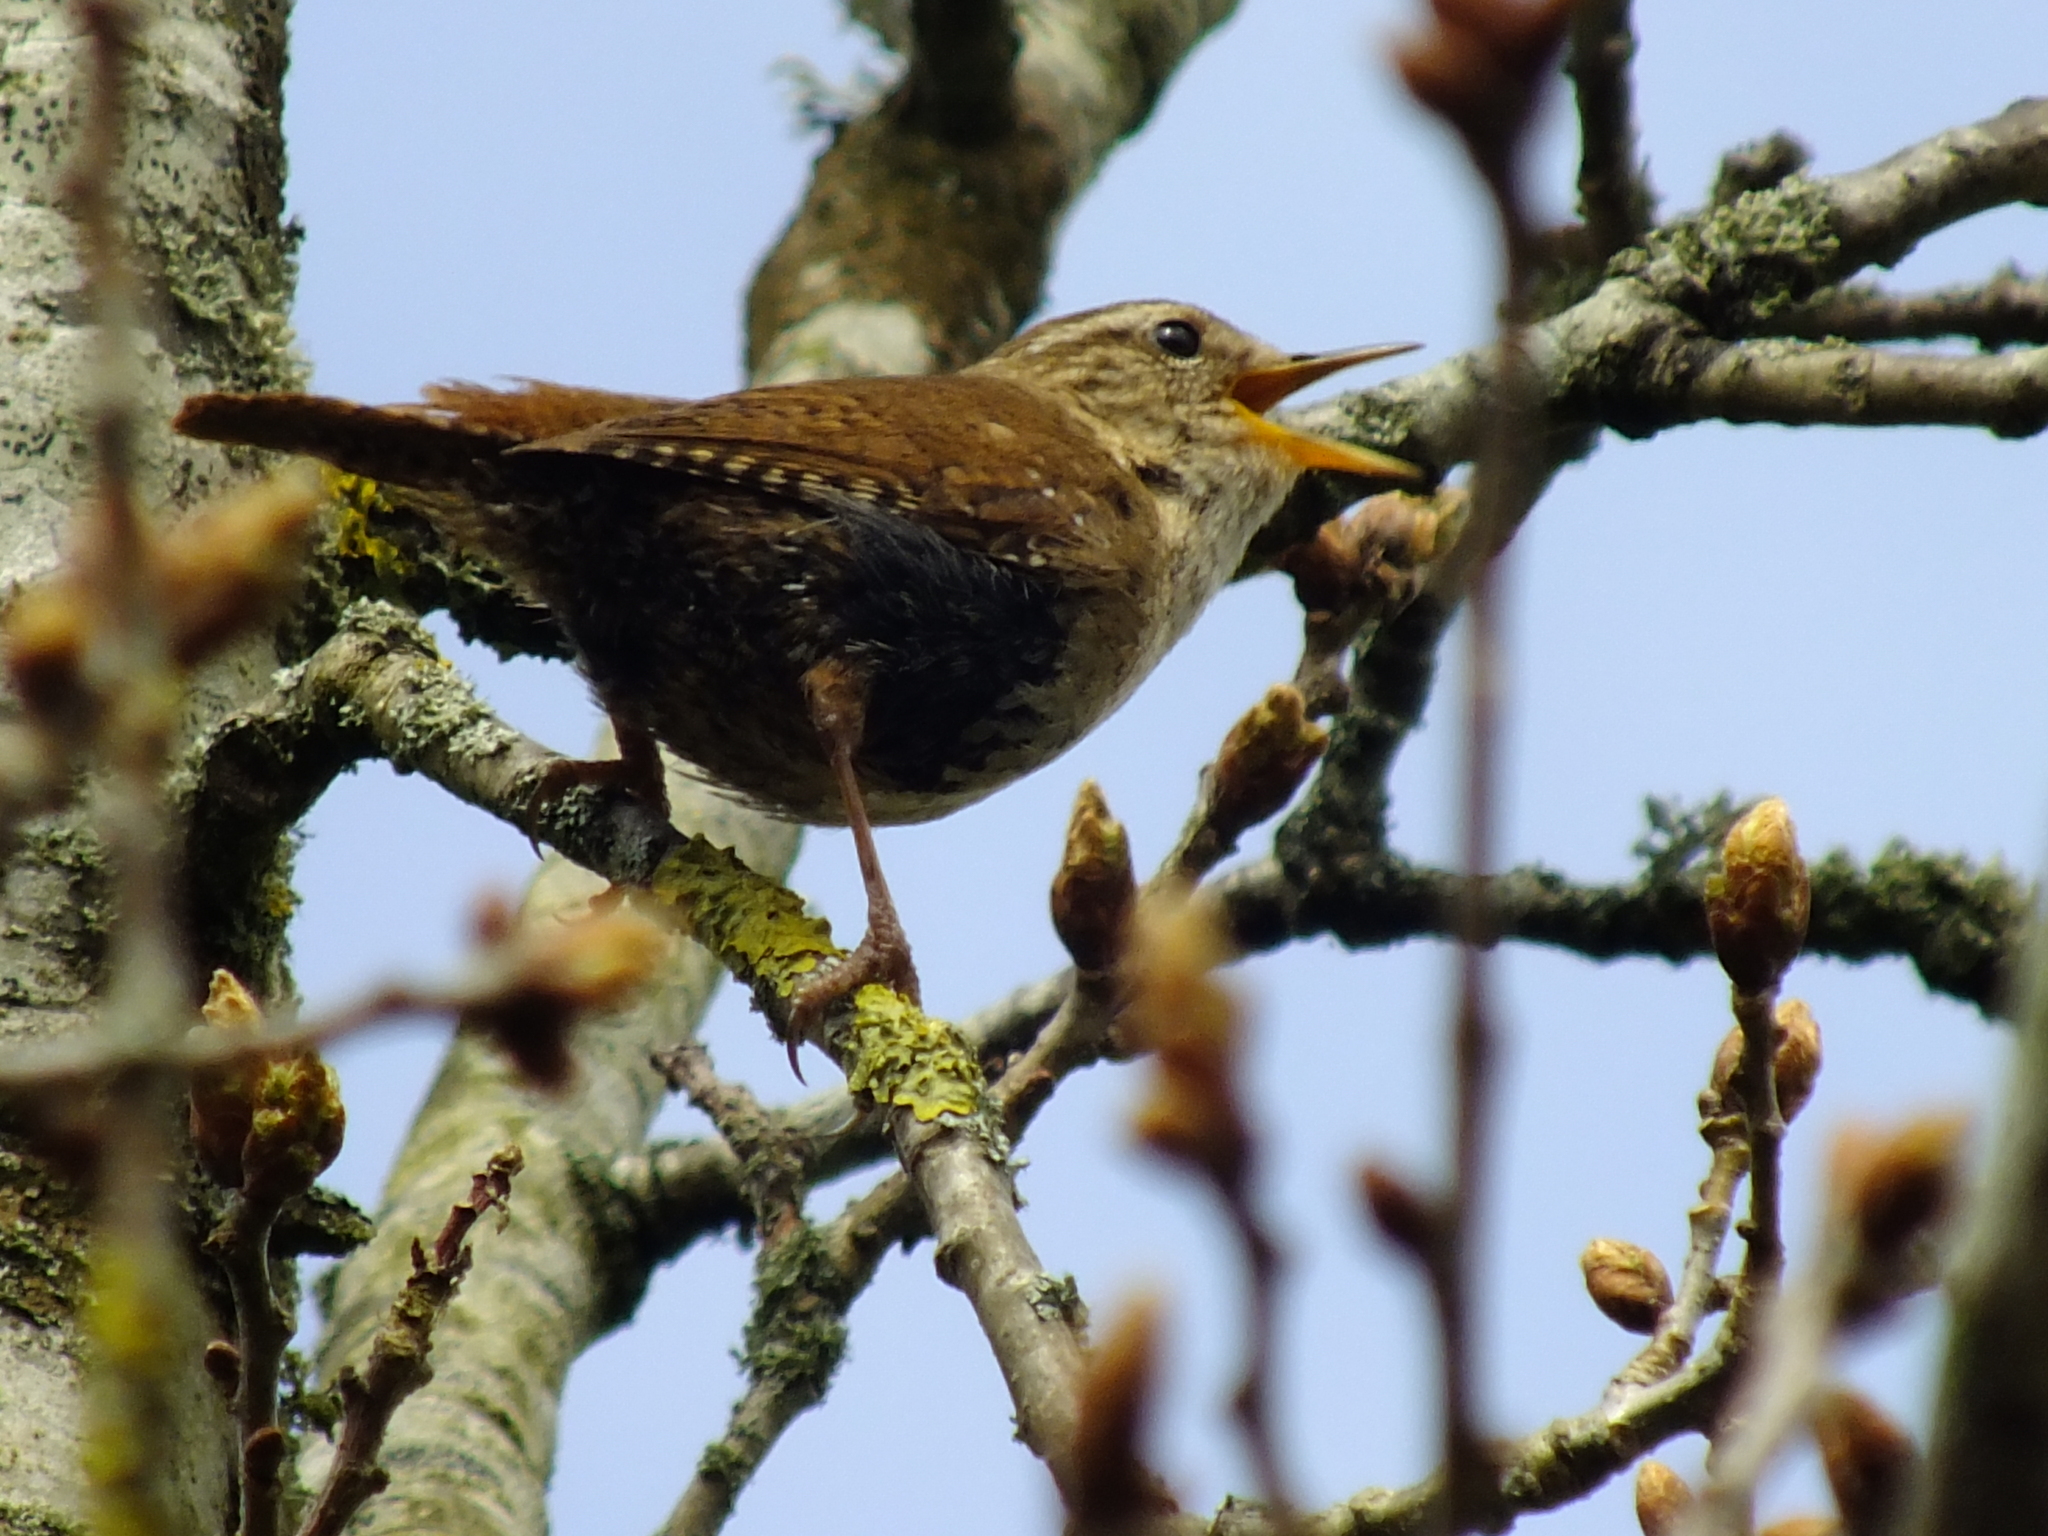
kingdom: Animalia
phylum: Chordata
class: Aves
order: Passeriformes
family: Troglodytidae
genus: Troglodytes
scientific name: Troglodytes troglodytes
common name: Eurasian wren
